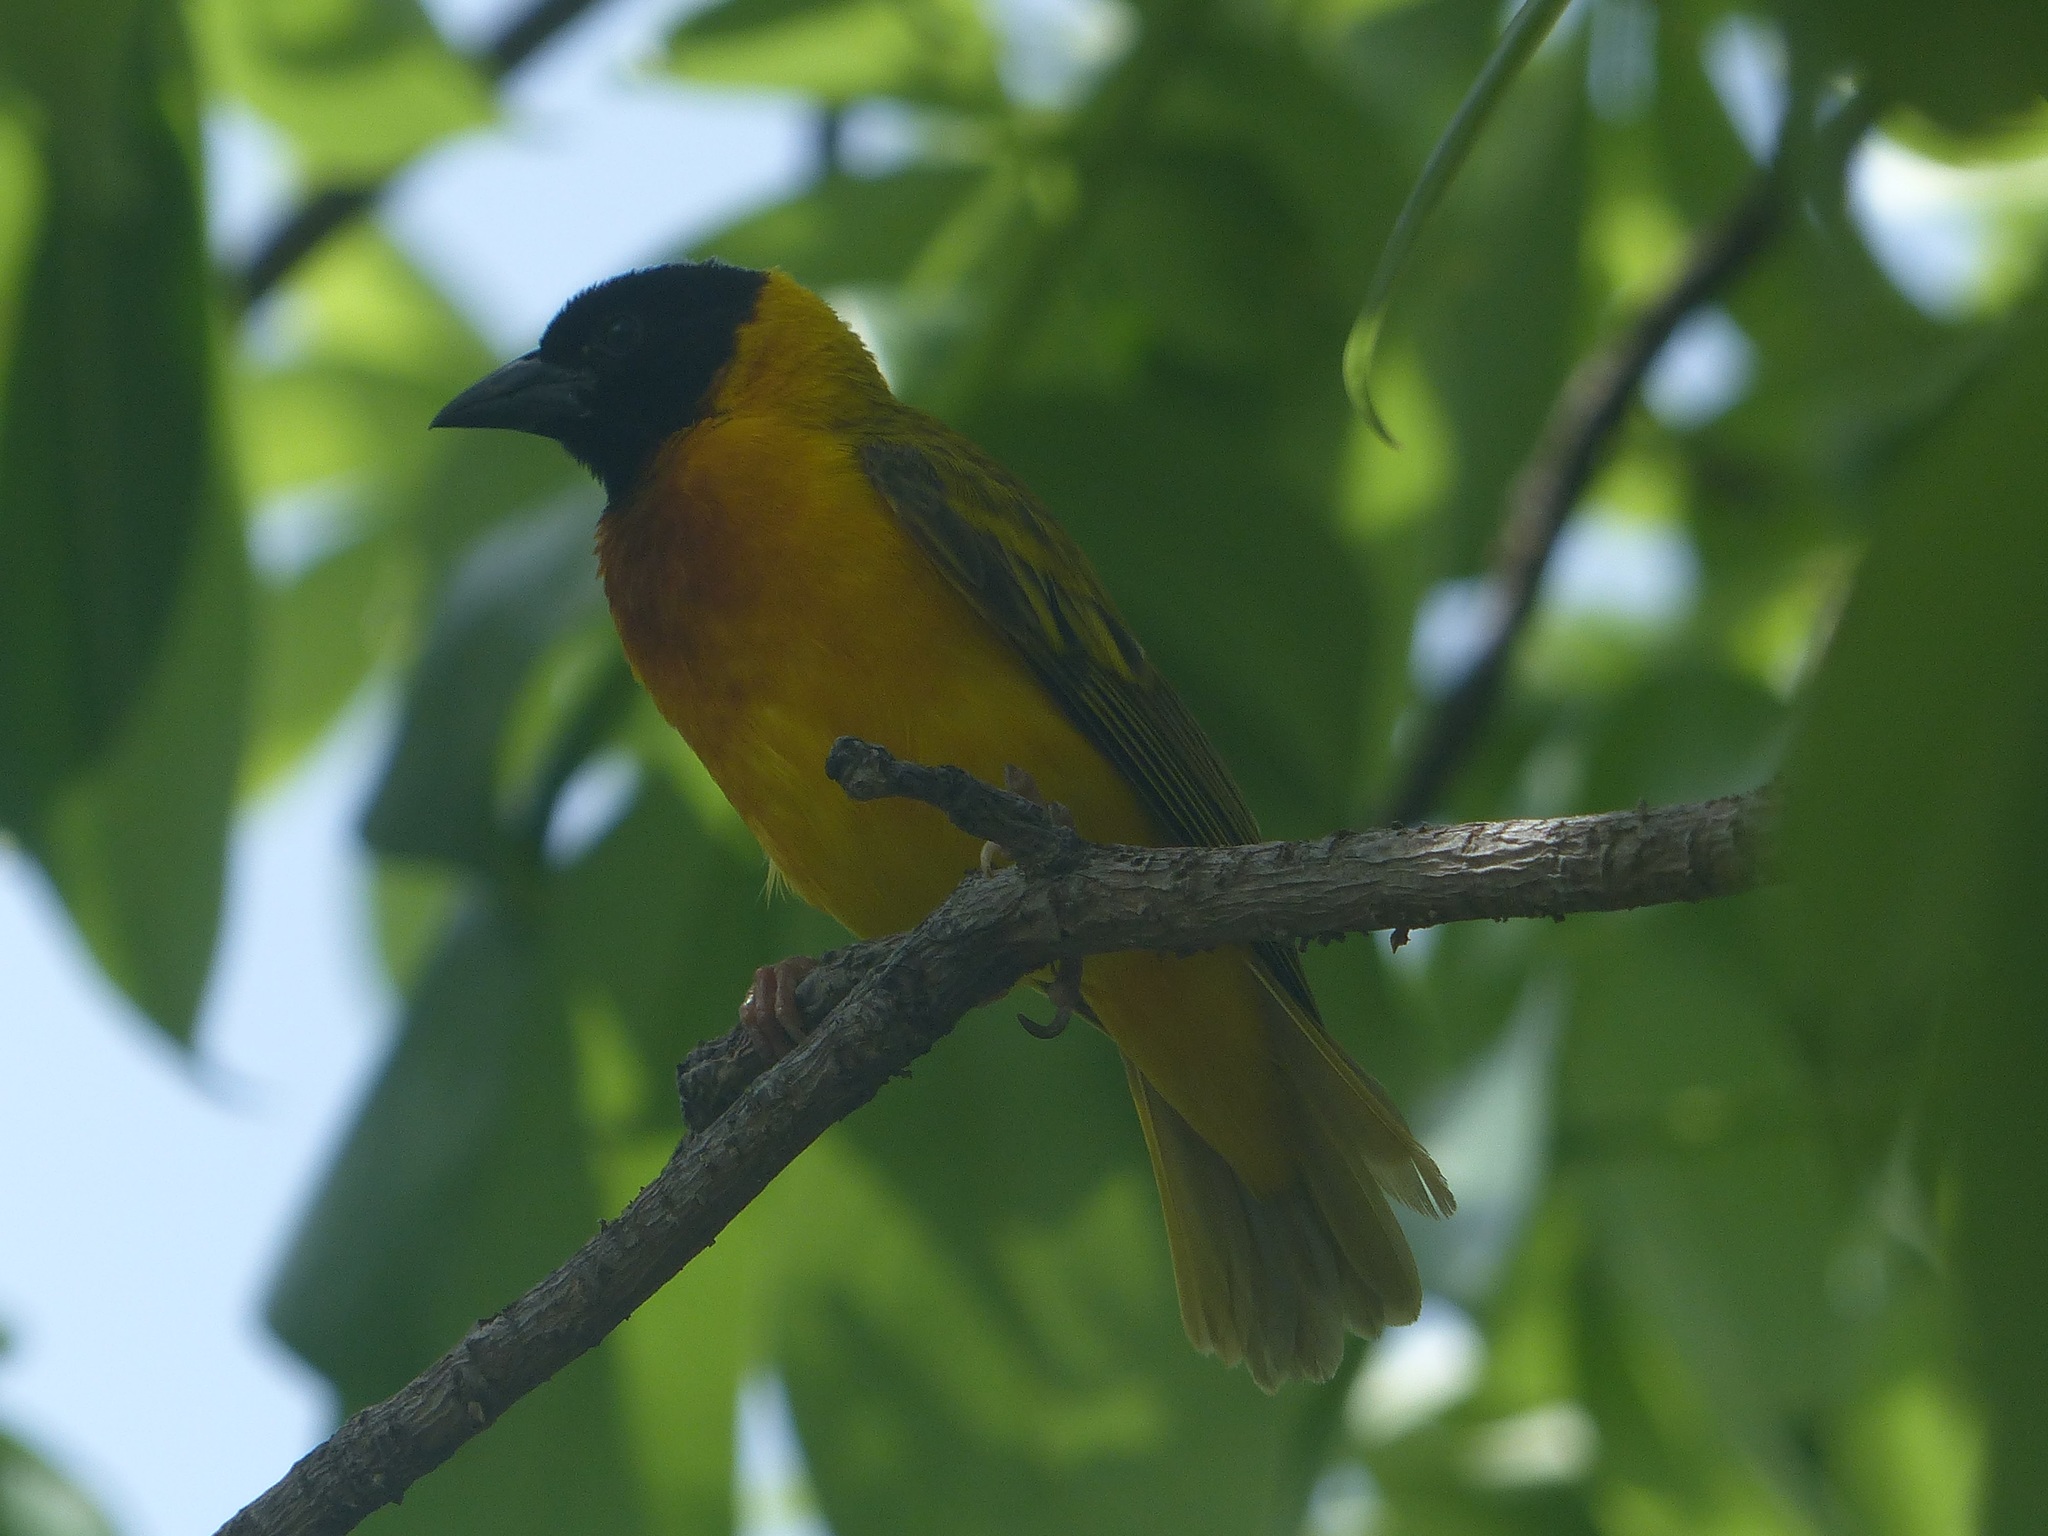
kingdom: Animalia
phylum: Chordata
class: Aves
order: Passeriformes
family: Ploceidae
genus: Ploceus
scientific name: Ploceus melanocephalus
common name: Black-headed weaver
